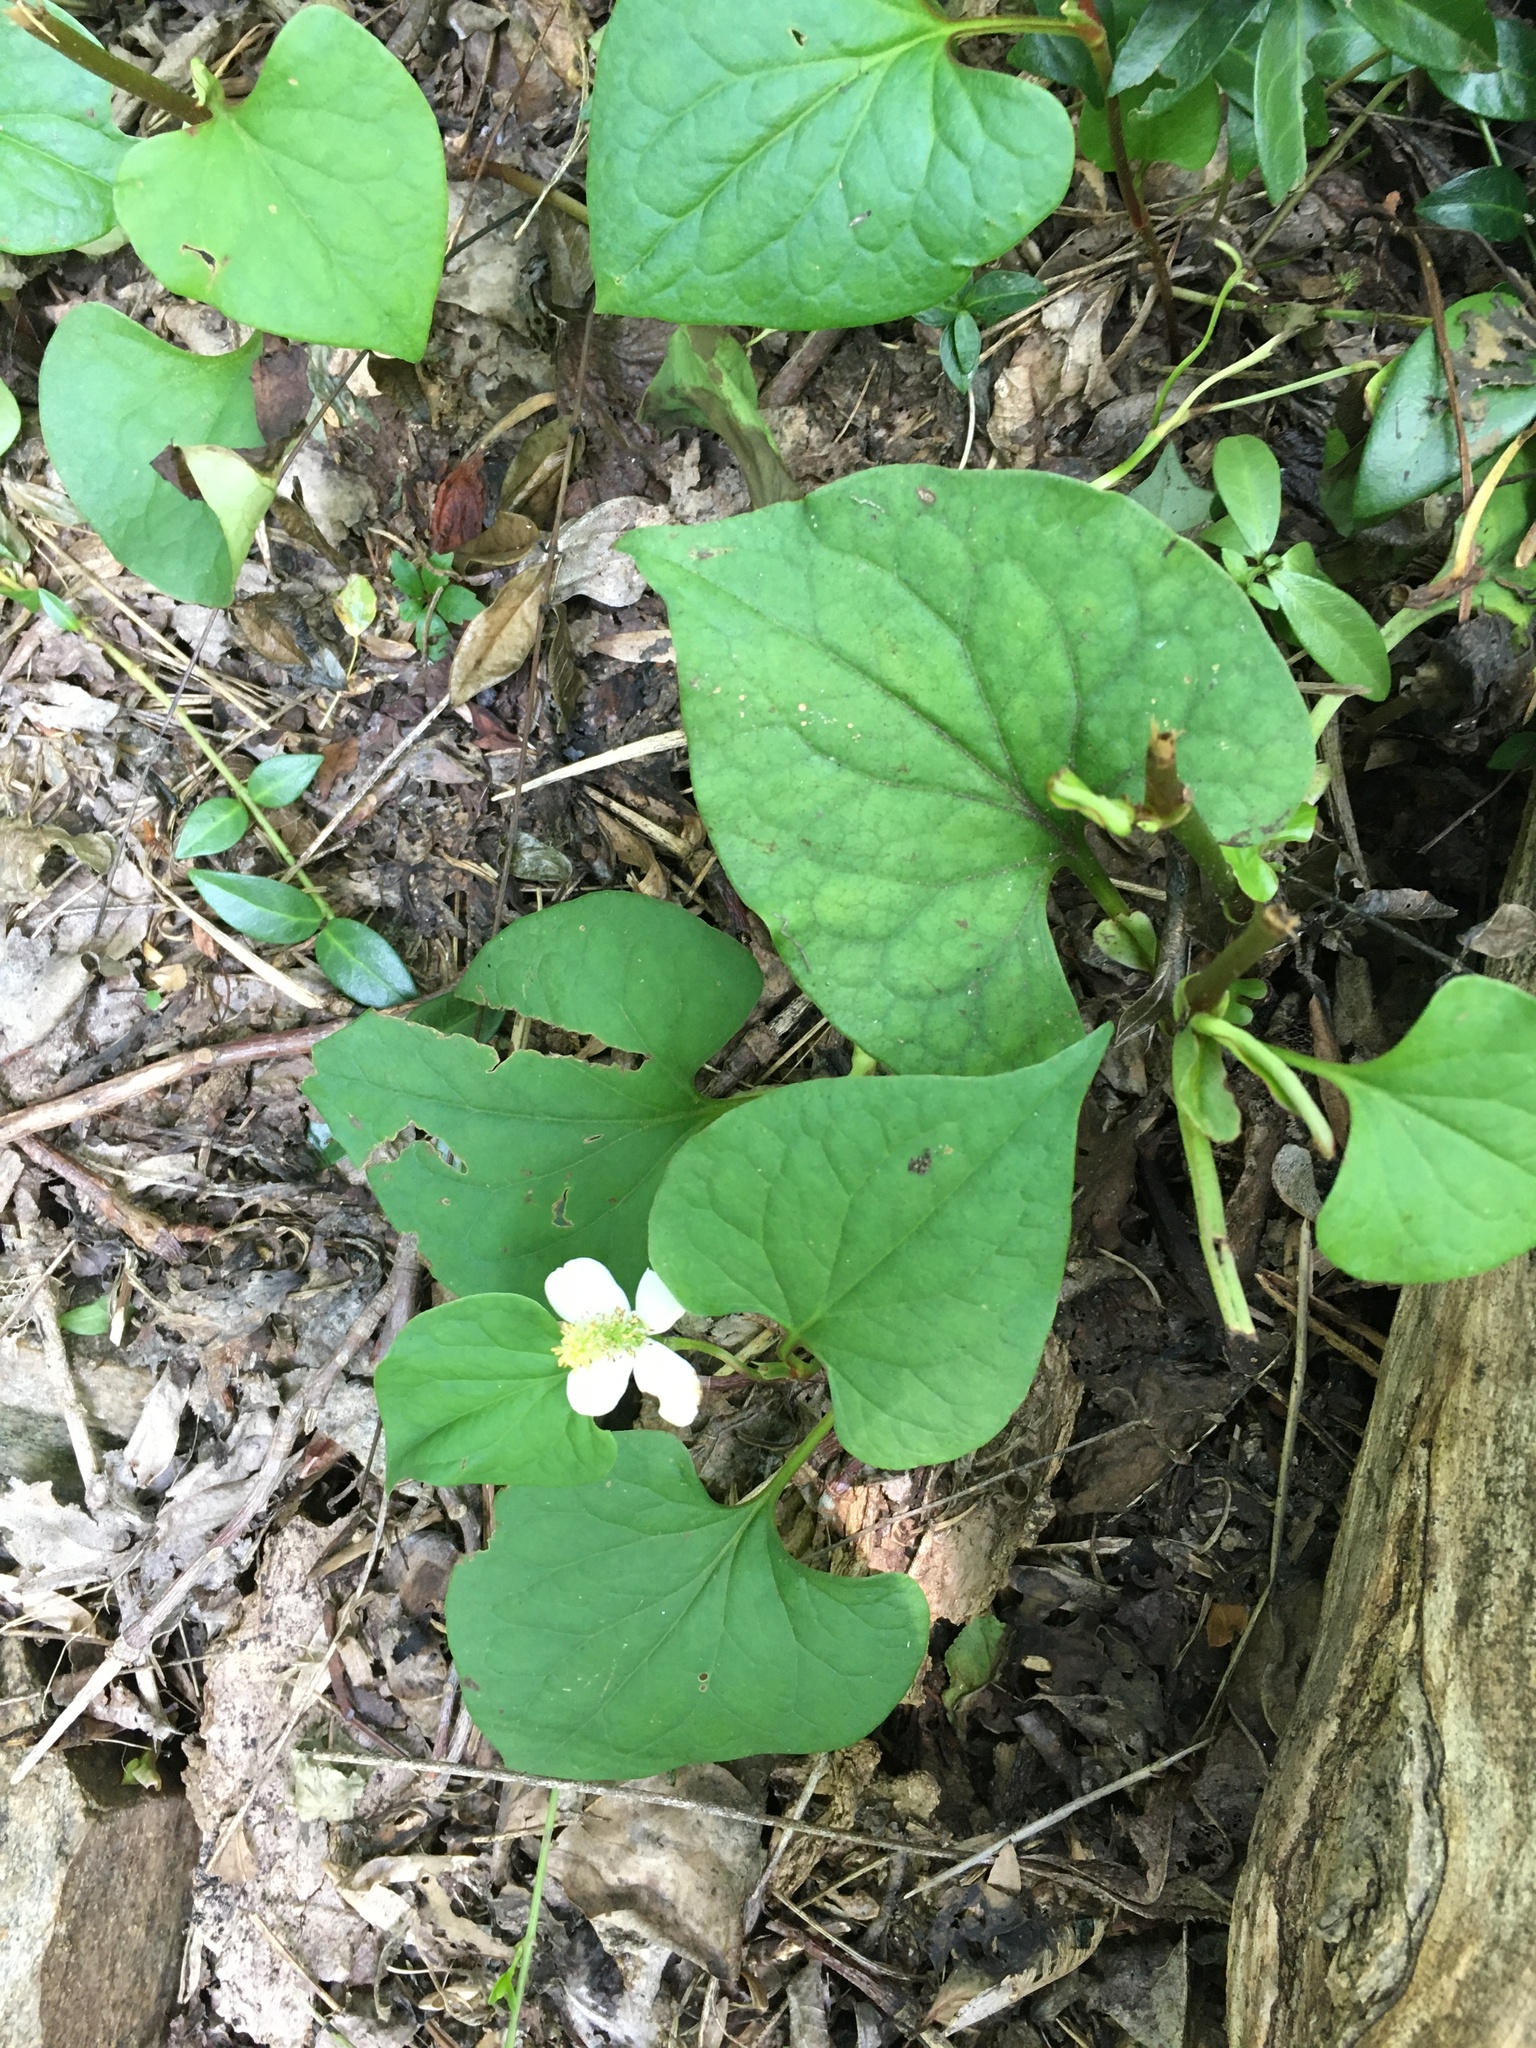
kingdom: Plantae
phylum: Tracheophyta
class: Magnoliopsida
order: Piperales
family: Saururaceae
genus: Houttuynia
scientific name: Houttuynia cordata
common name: Chameleon
